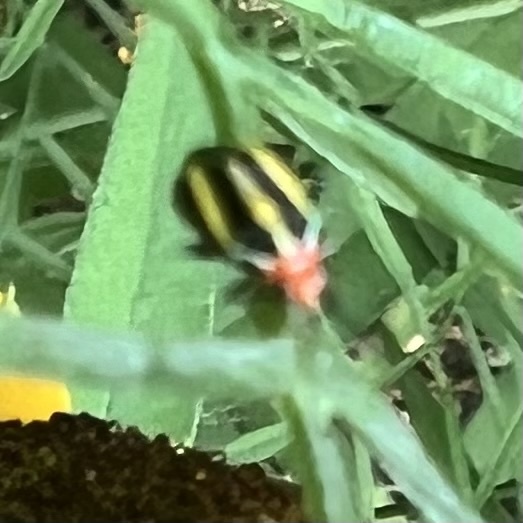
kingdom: Animalia
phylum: Arthropoda
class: Insecta
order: Hemiptera
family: Miridae
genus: Poecilocapsus
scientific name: Poecilocapsus lineatus
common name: Four-lined plant bug
